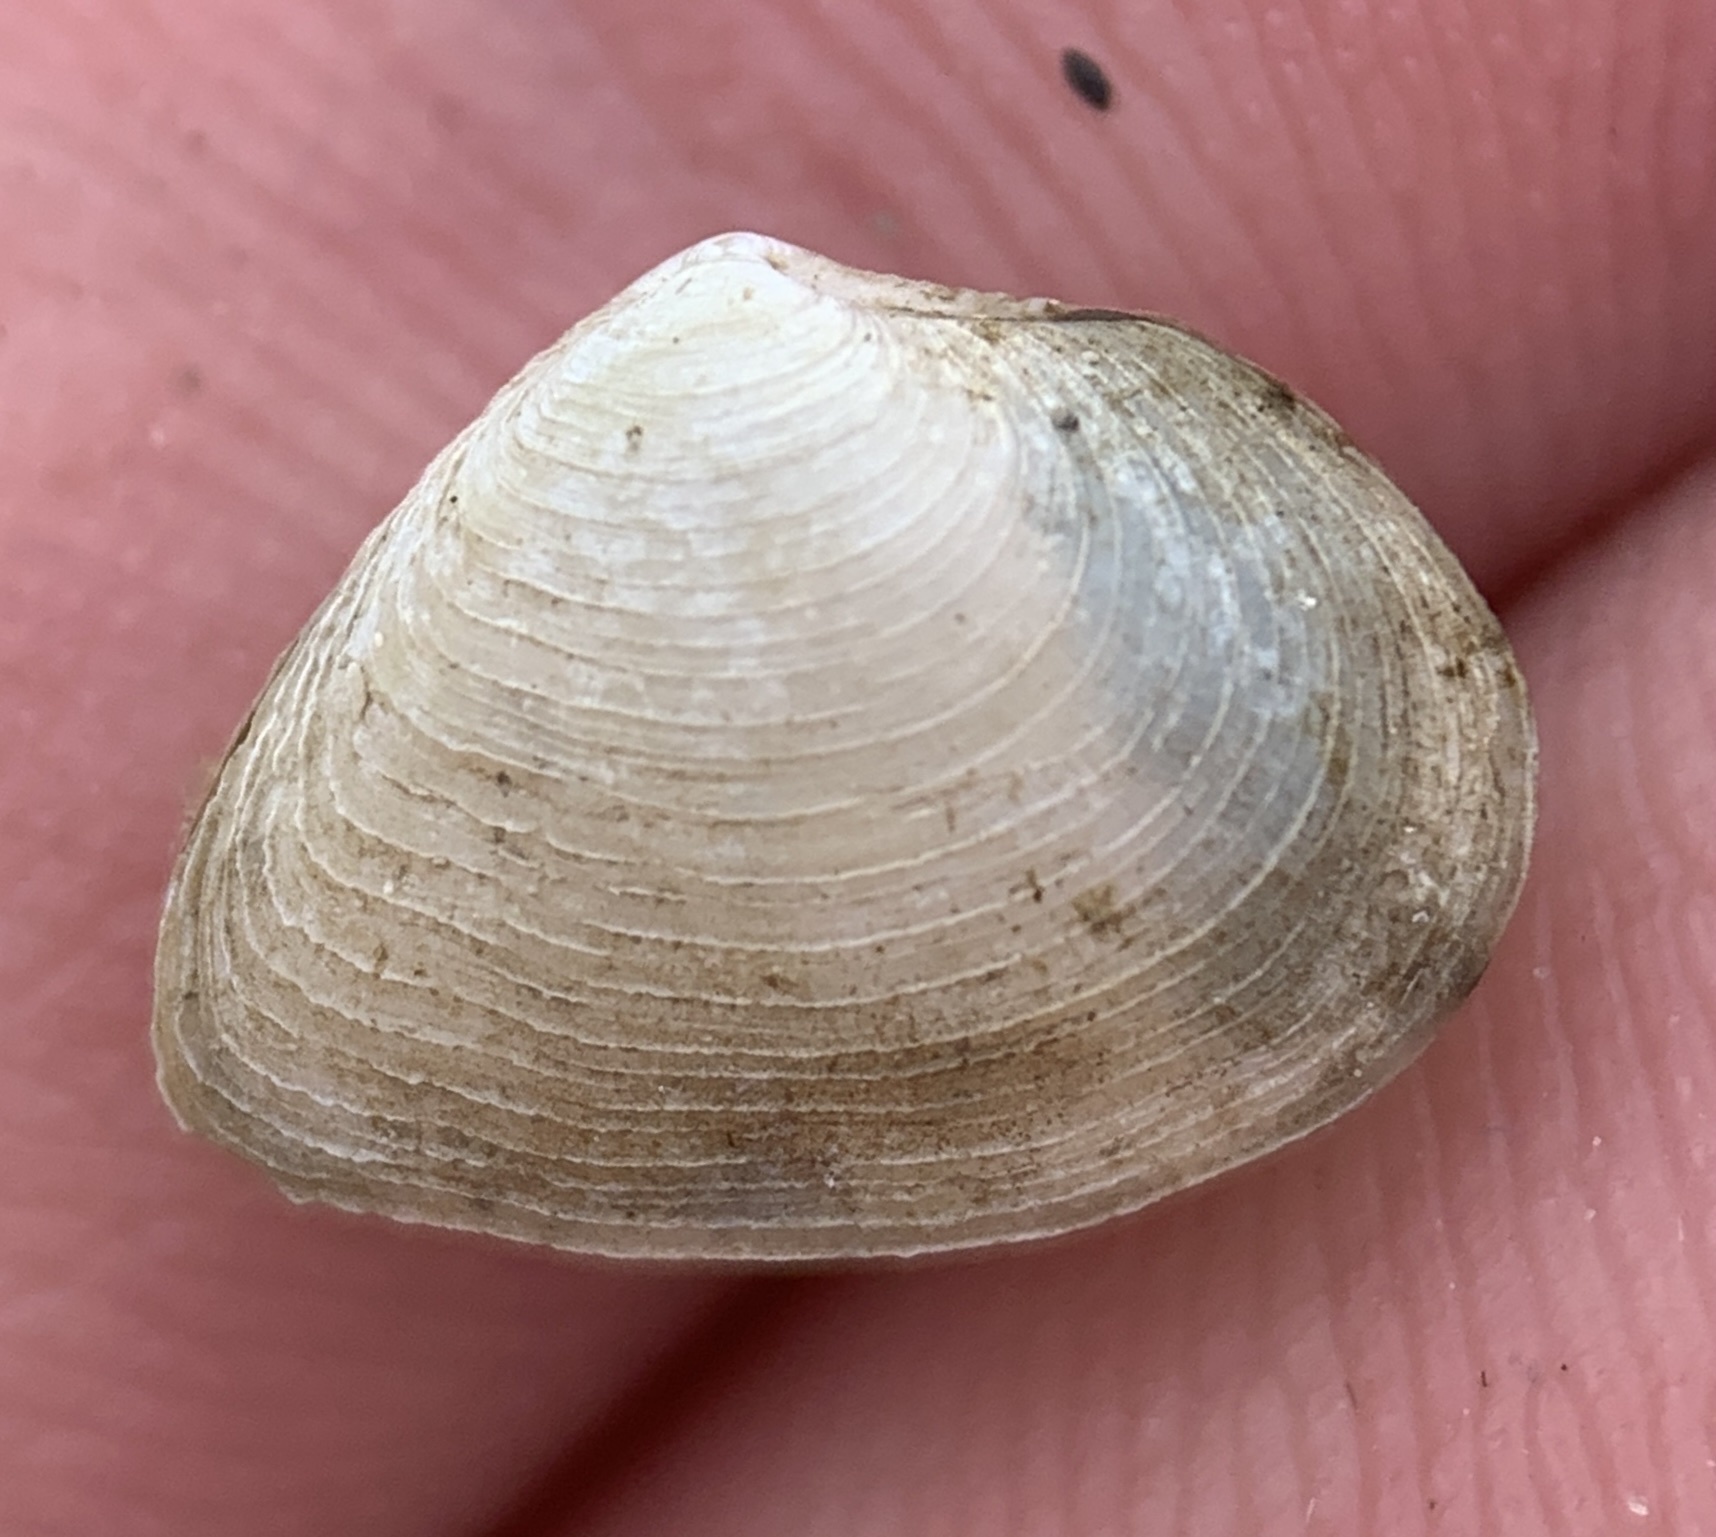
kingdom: Animalia
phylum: Mollusca
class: Bivalvia
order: Cardiida
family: Semelidae
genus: Cumingia
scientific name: Cumingia sinuosa
